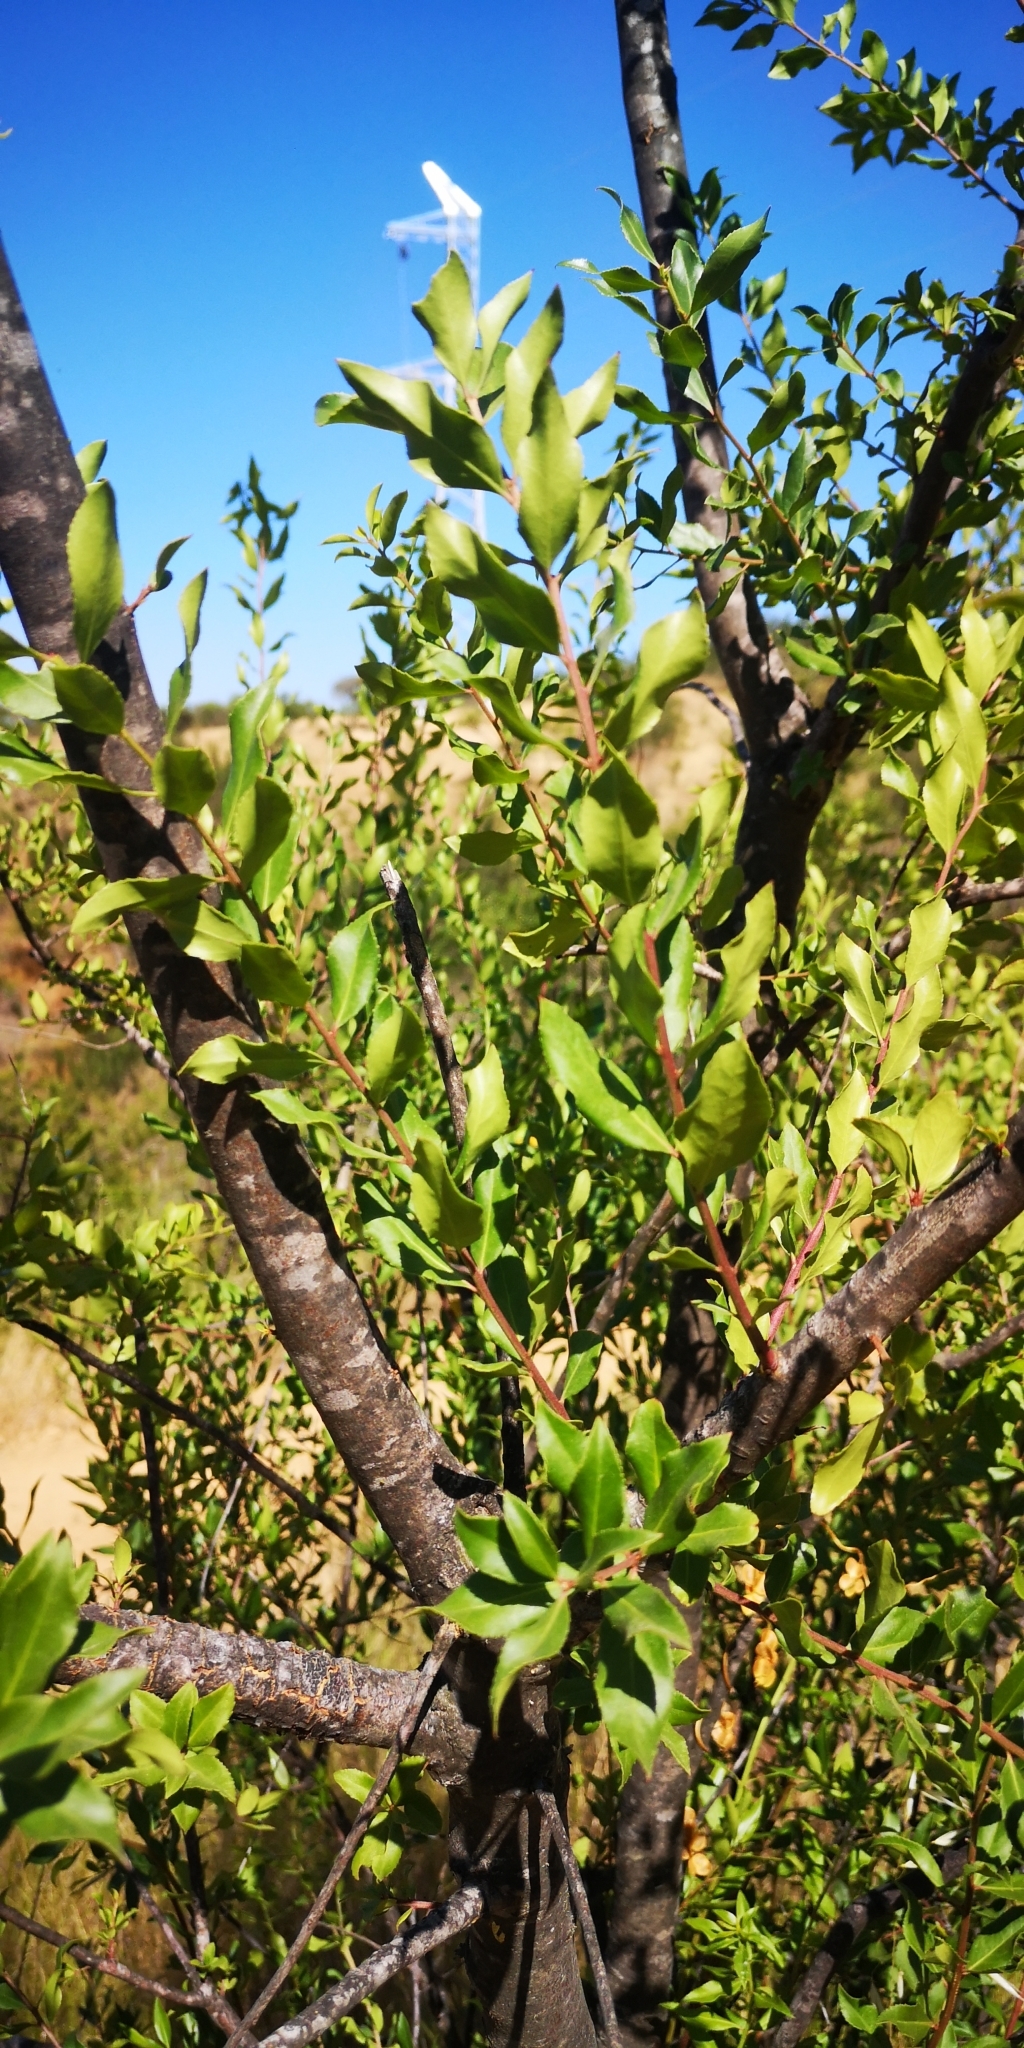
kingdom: Plantae
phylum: Tracheophyta
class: Magnoliopsida
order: Celastrales
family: Celastraceae
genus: Maytenus
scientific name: Maytenus boaria
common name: Mayten
